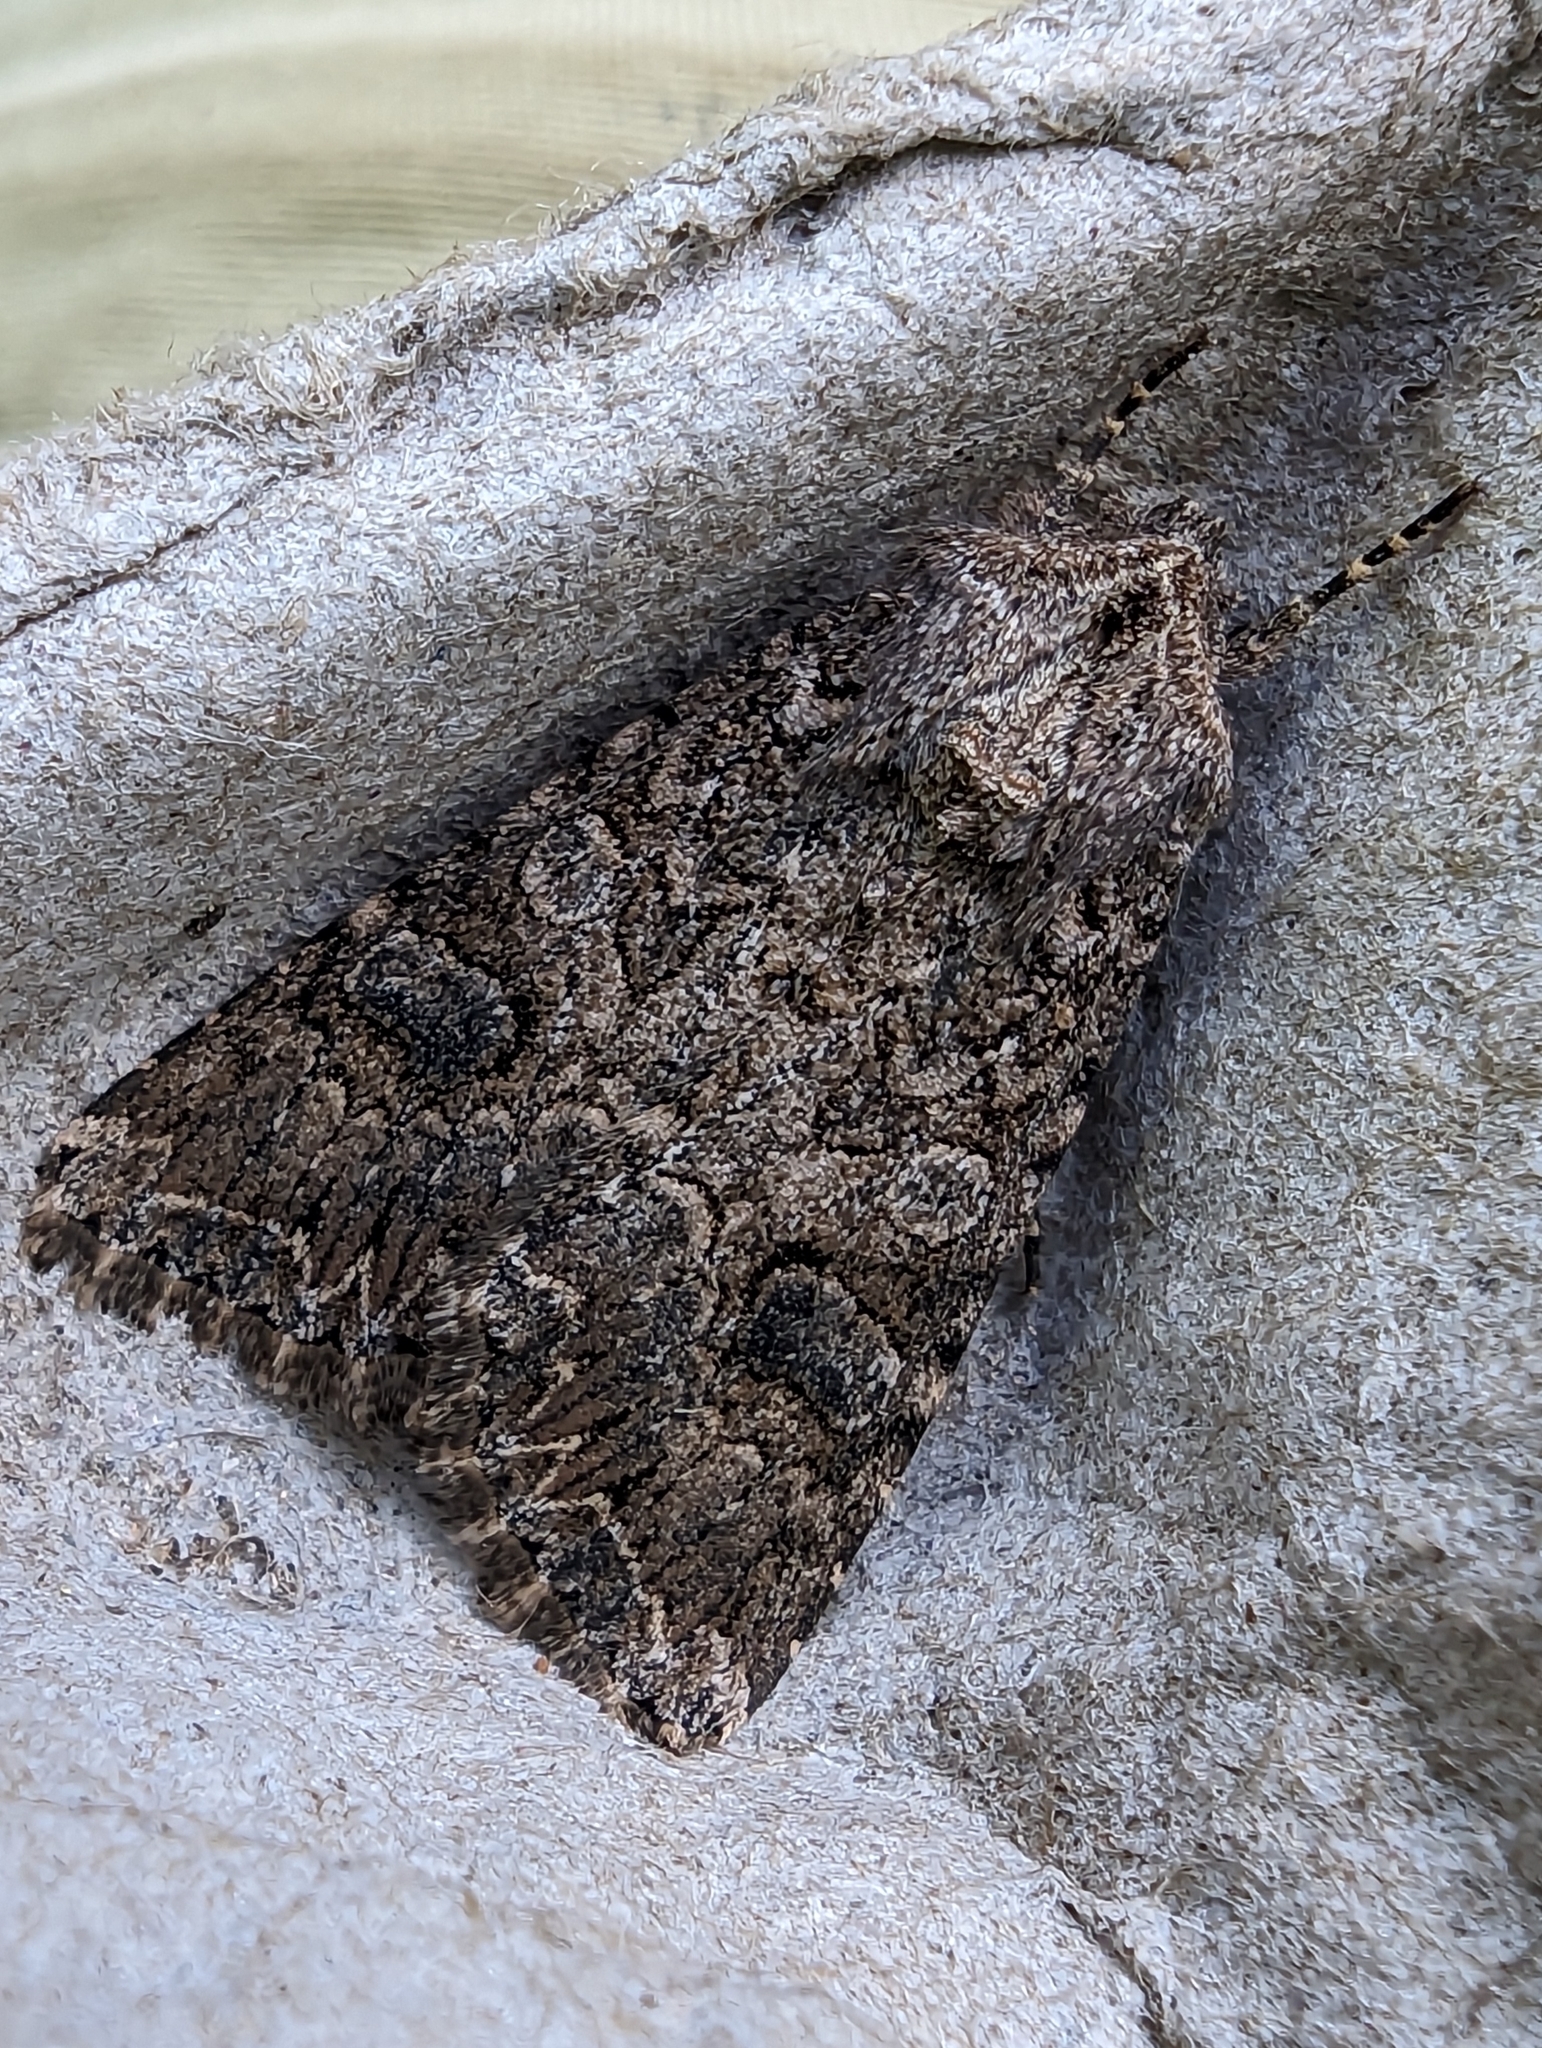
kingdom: Animalia
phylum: Arthropoda
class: Insecta
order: Lepidoptera
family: Noctuidae
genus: Anarta
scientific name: Anarta trifolii
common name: Clover cutworm moth
